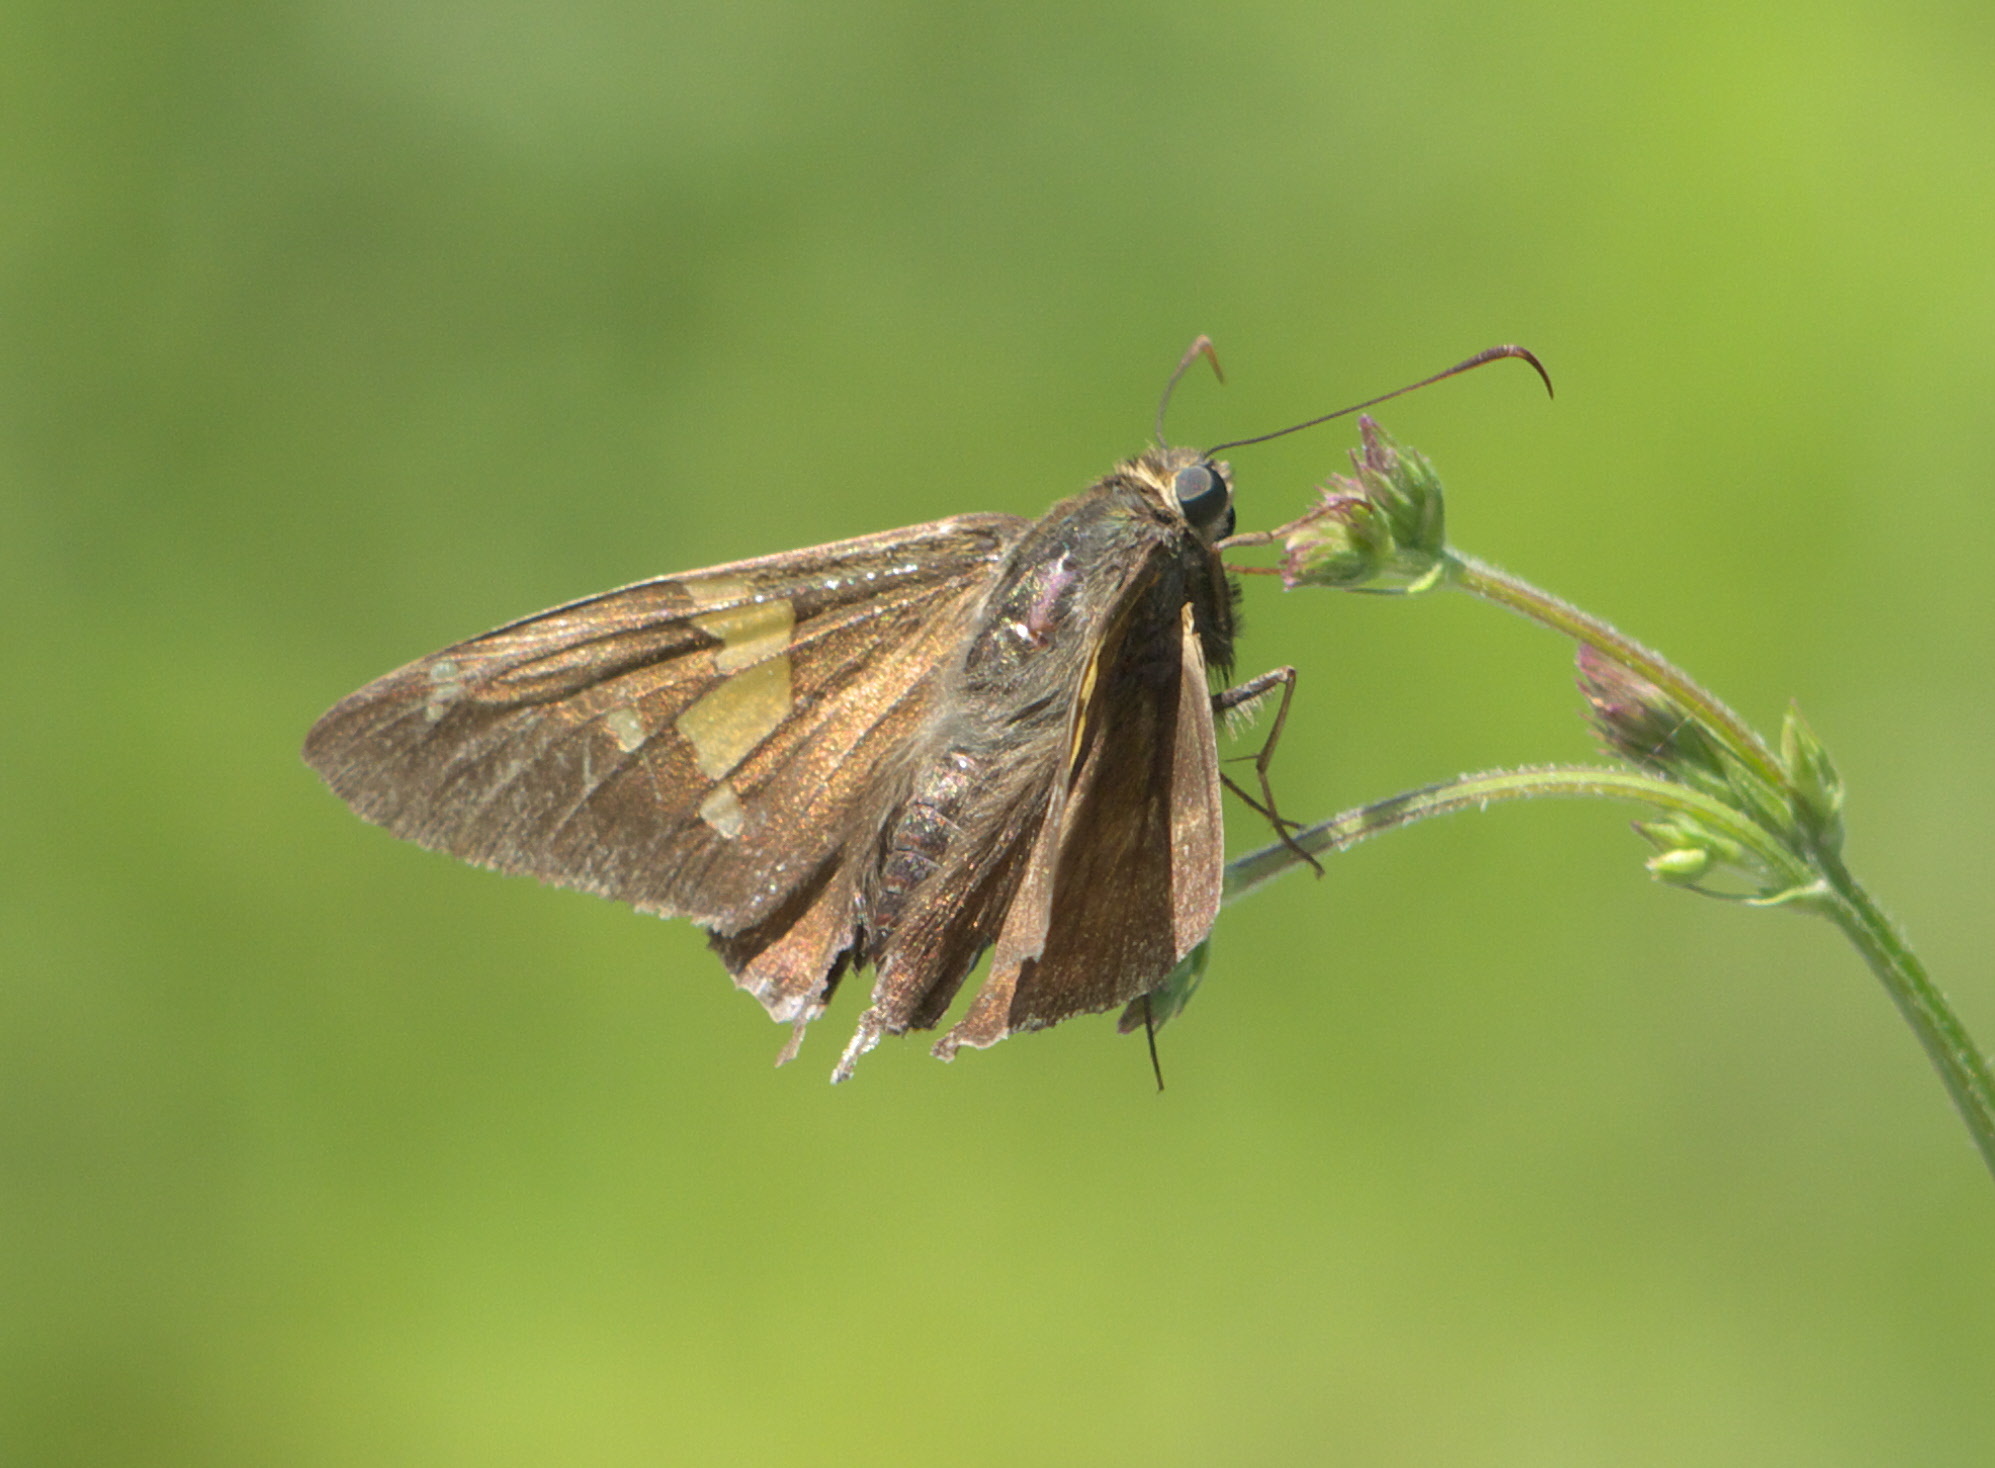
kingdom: Animalia
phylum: Arthropoda
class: Insecta
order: Lepidoptera
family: Hesperiidae
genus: Epargyreus
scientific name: Epargyreus clarus
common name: Silver-spotted skipper
